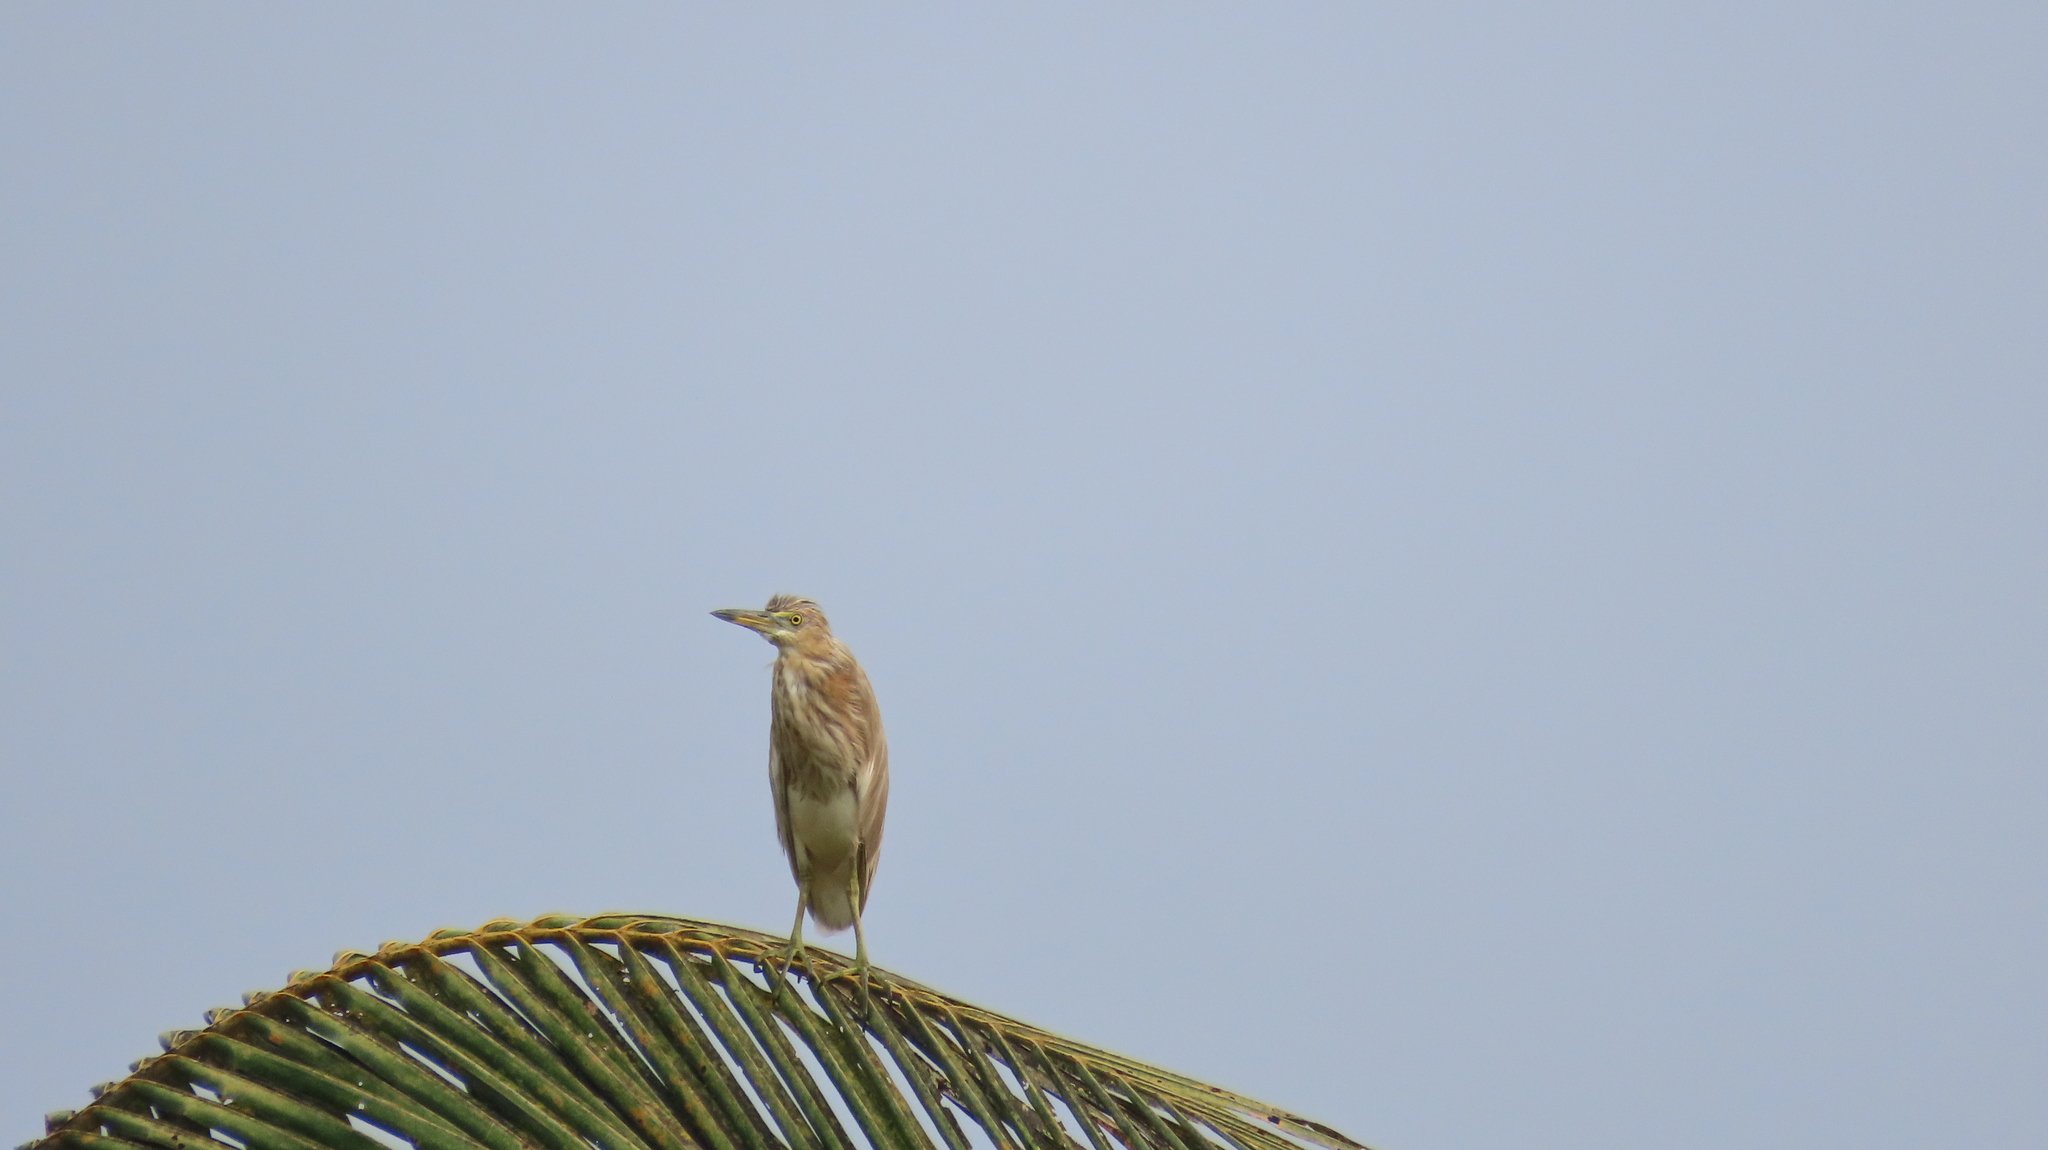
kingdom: Animalia
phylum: Chordata
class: Aves
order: Pelecaniformes
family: Ardeidae
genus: Ardeola
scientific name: Ardeola grayii
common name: Indian pond heron
